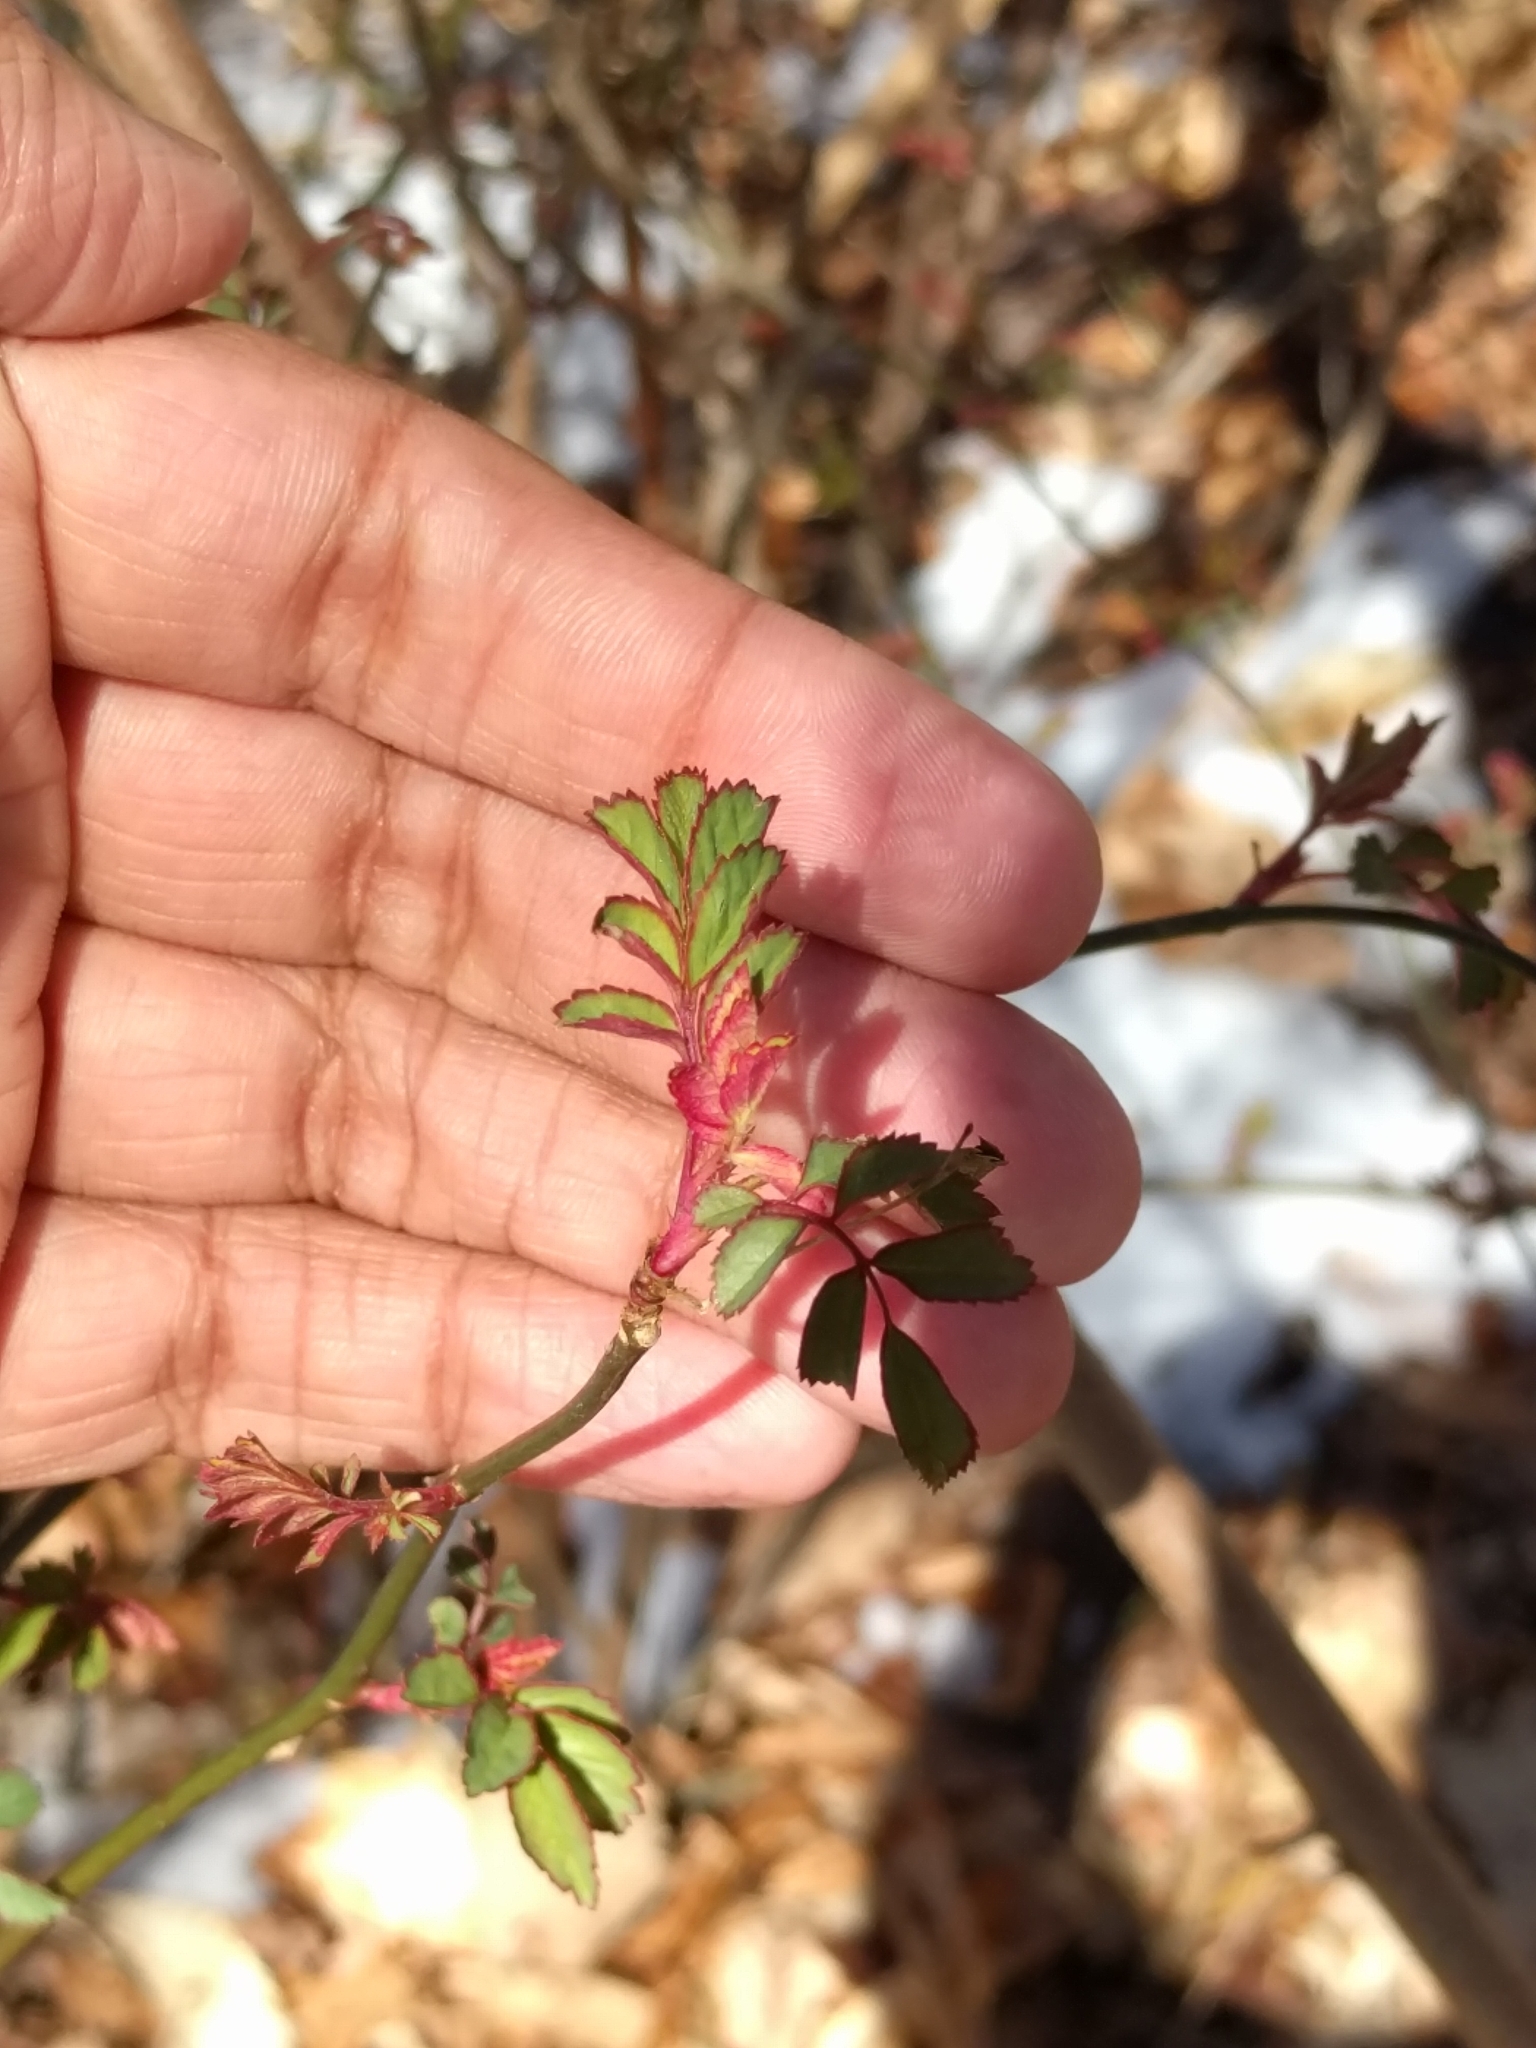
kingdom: Plantae
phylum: Tracheophyta
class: Magnoliopsida
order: Rosales
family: Rosaceae
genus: Rosa
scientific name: Rosa multiflora
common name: Multiflora rose
